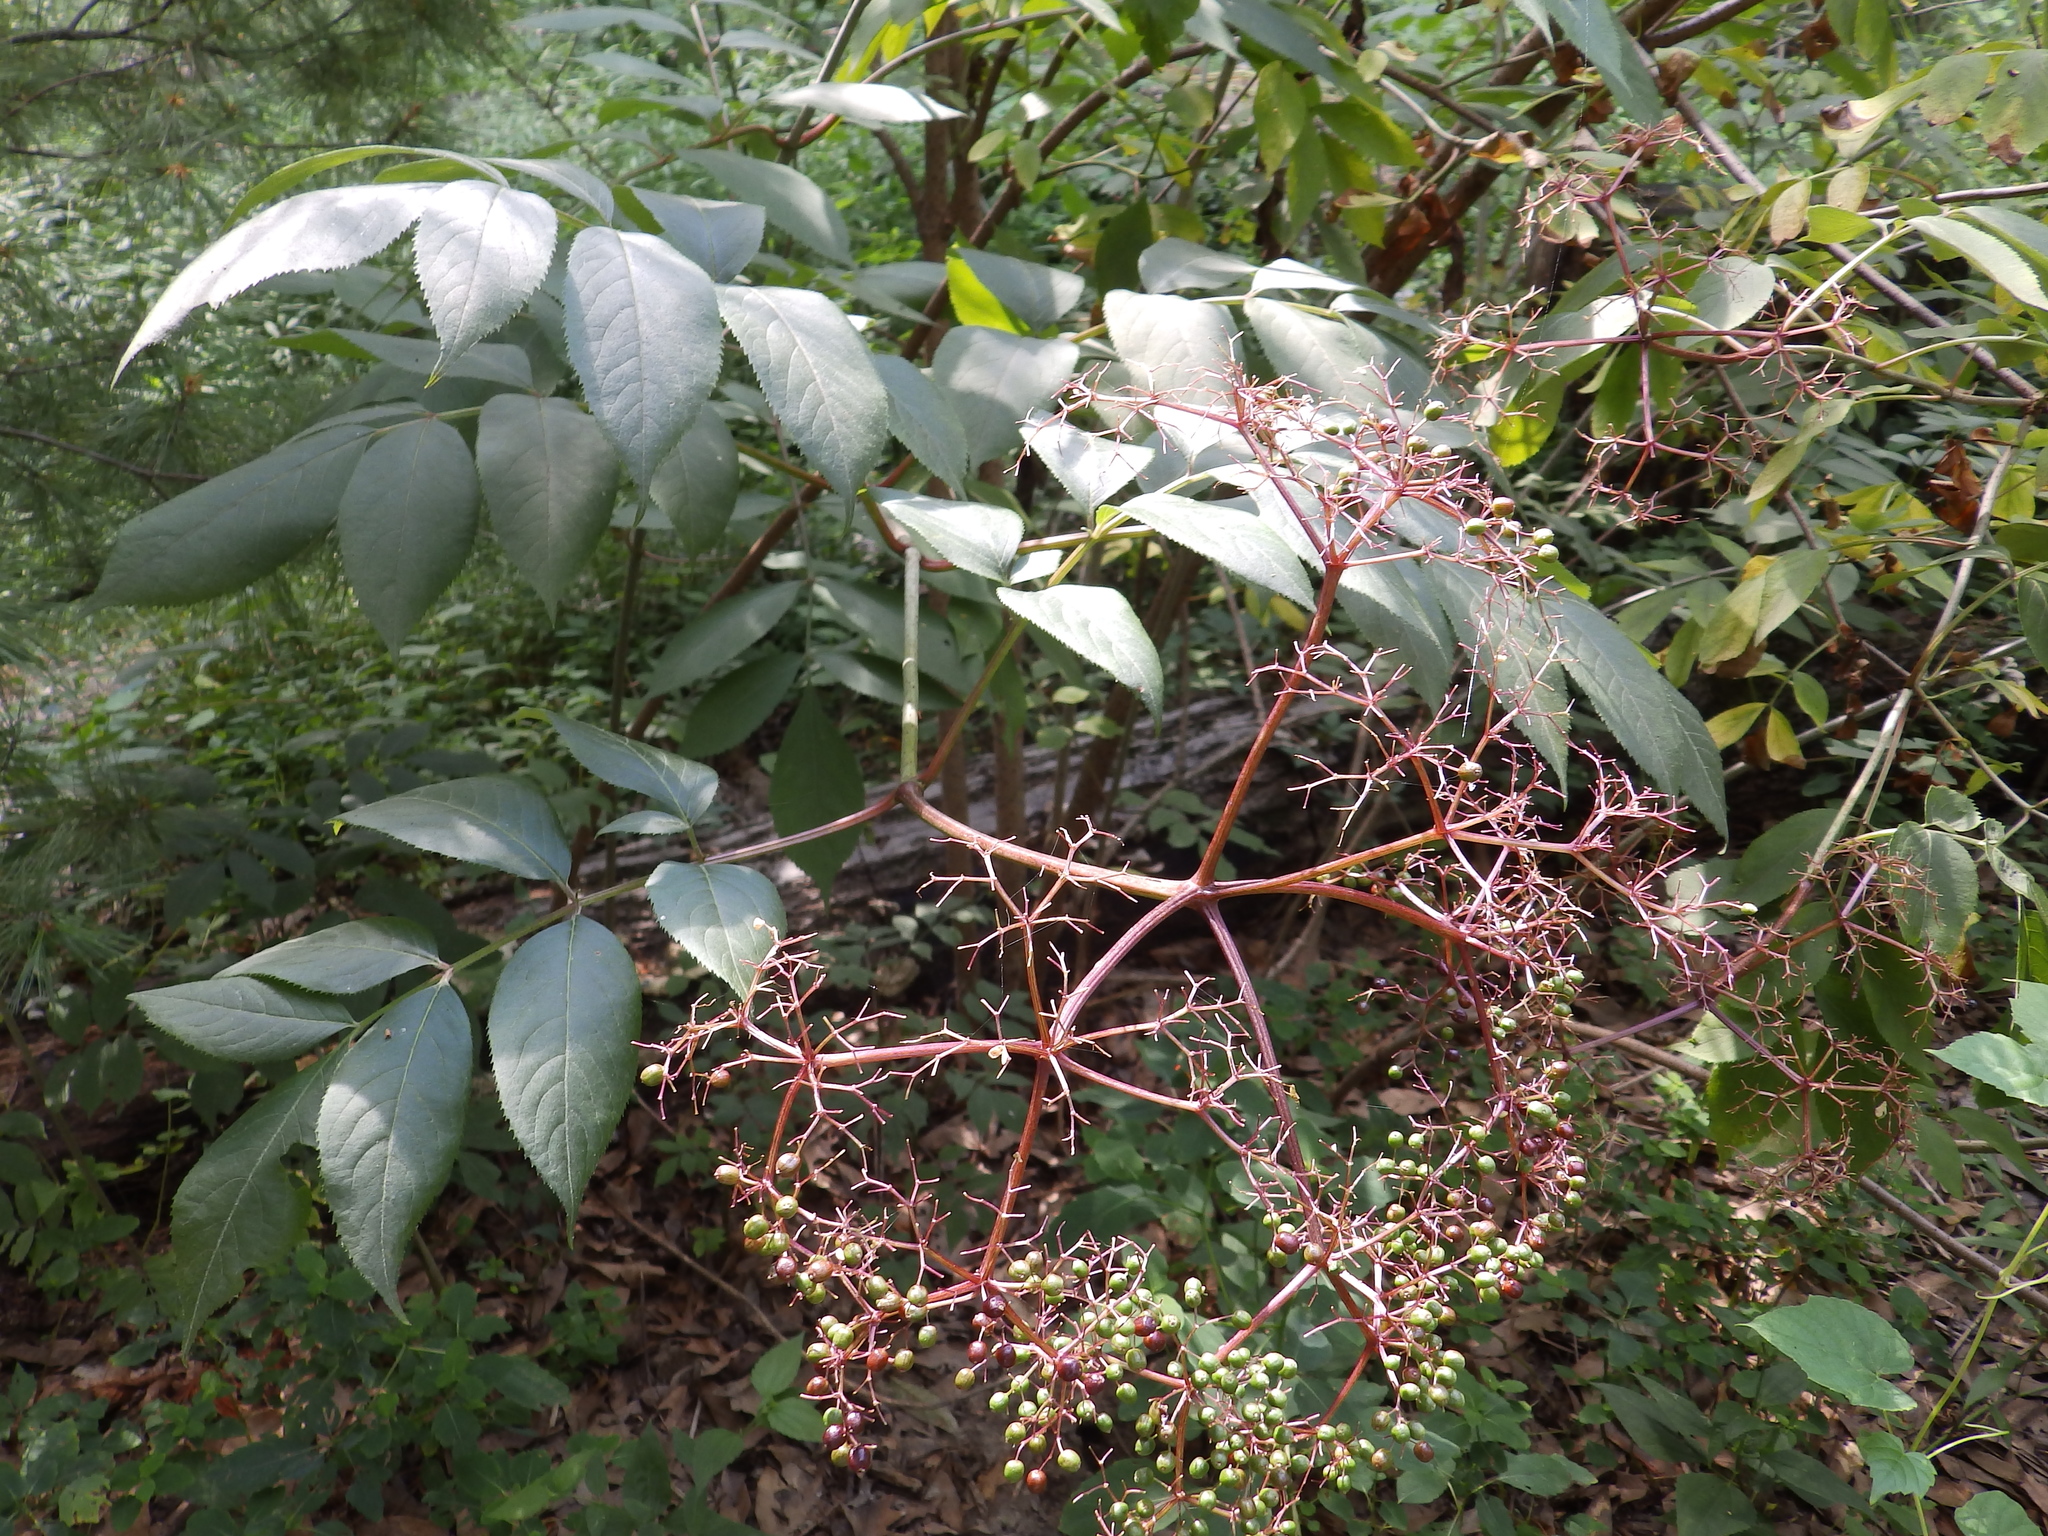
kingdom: Plantae
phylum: Tracheophyta
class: Magnoliopsida
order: Dipsacales
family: Viburnaceae
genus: Sambucus
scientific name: Sambucus canadensis
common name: American elder
